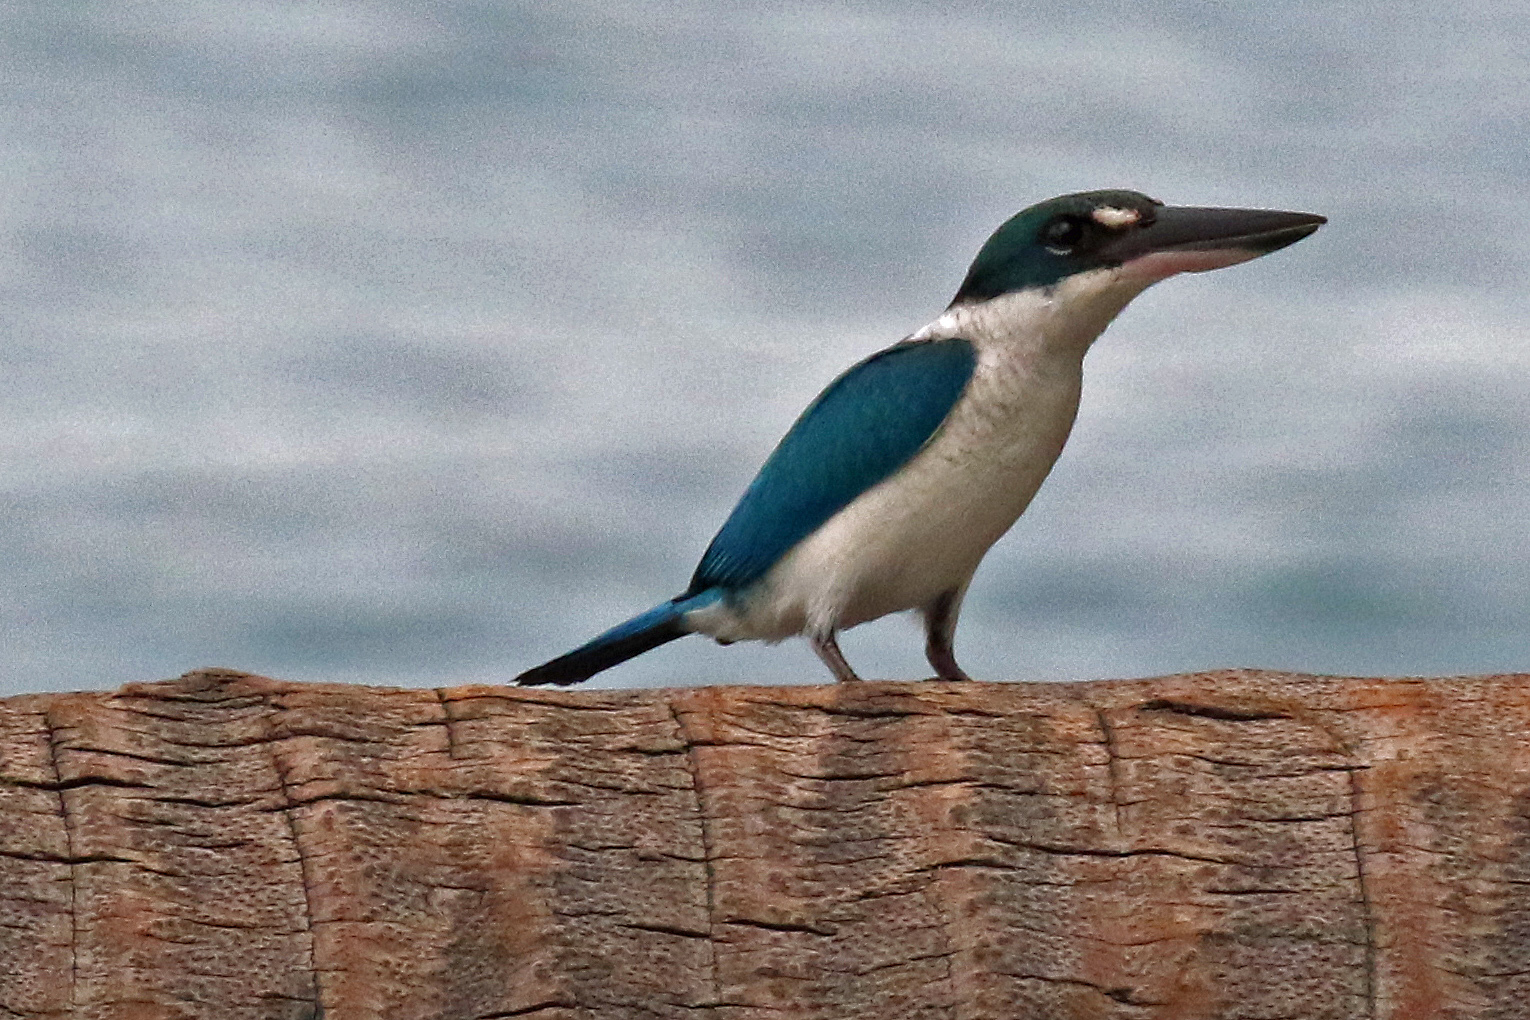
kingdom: Animalia
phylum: Chordata
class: Aves
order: Coraciiformes
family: Alcedinidae
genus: Todiramphus
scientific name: Todiramphus chloris
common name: Collared kingfisher
